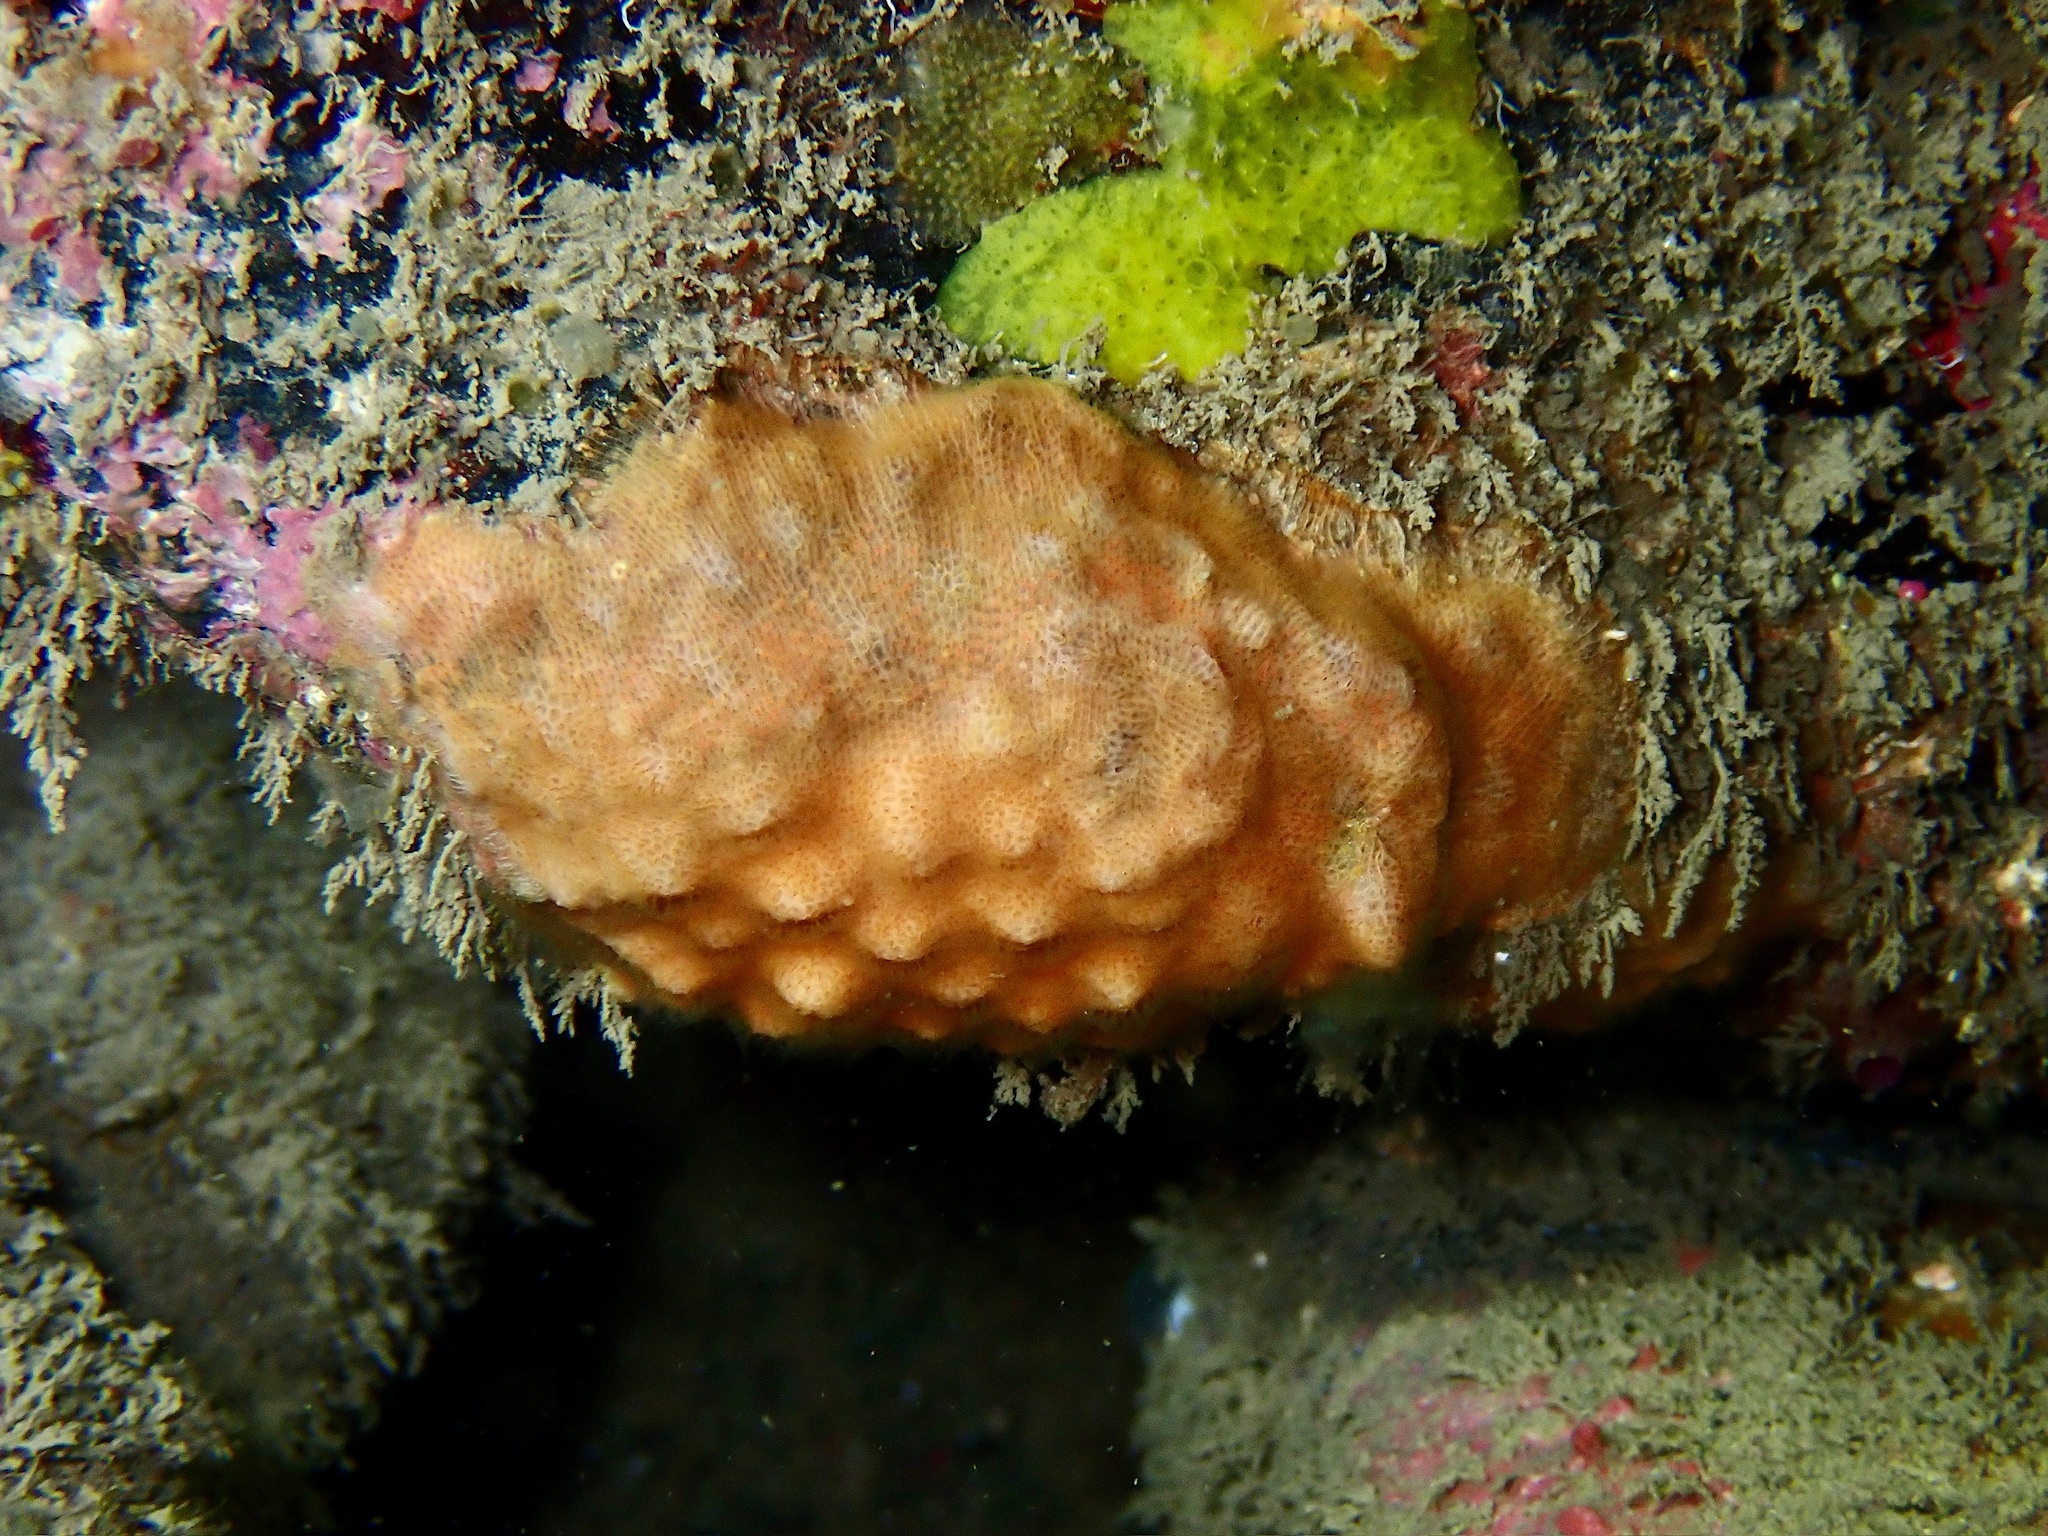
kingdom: Animalia
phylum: Bryozoa
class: Gymnolaemata
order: Cheilostomatida
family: Celleporidae
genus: Cellepora
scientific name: Cellepora pumicosa
